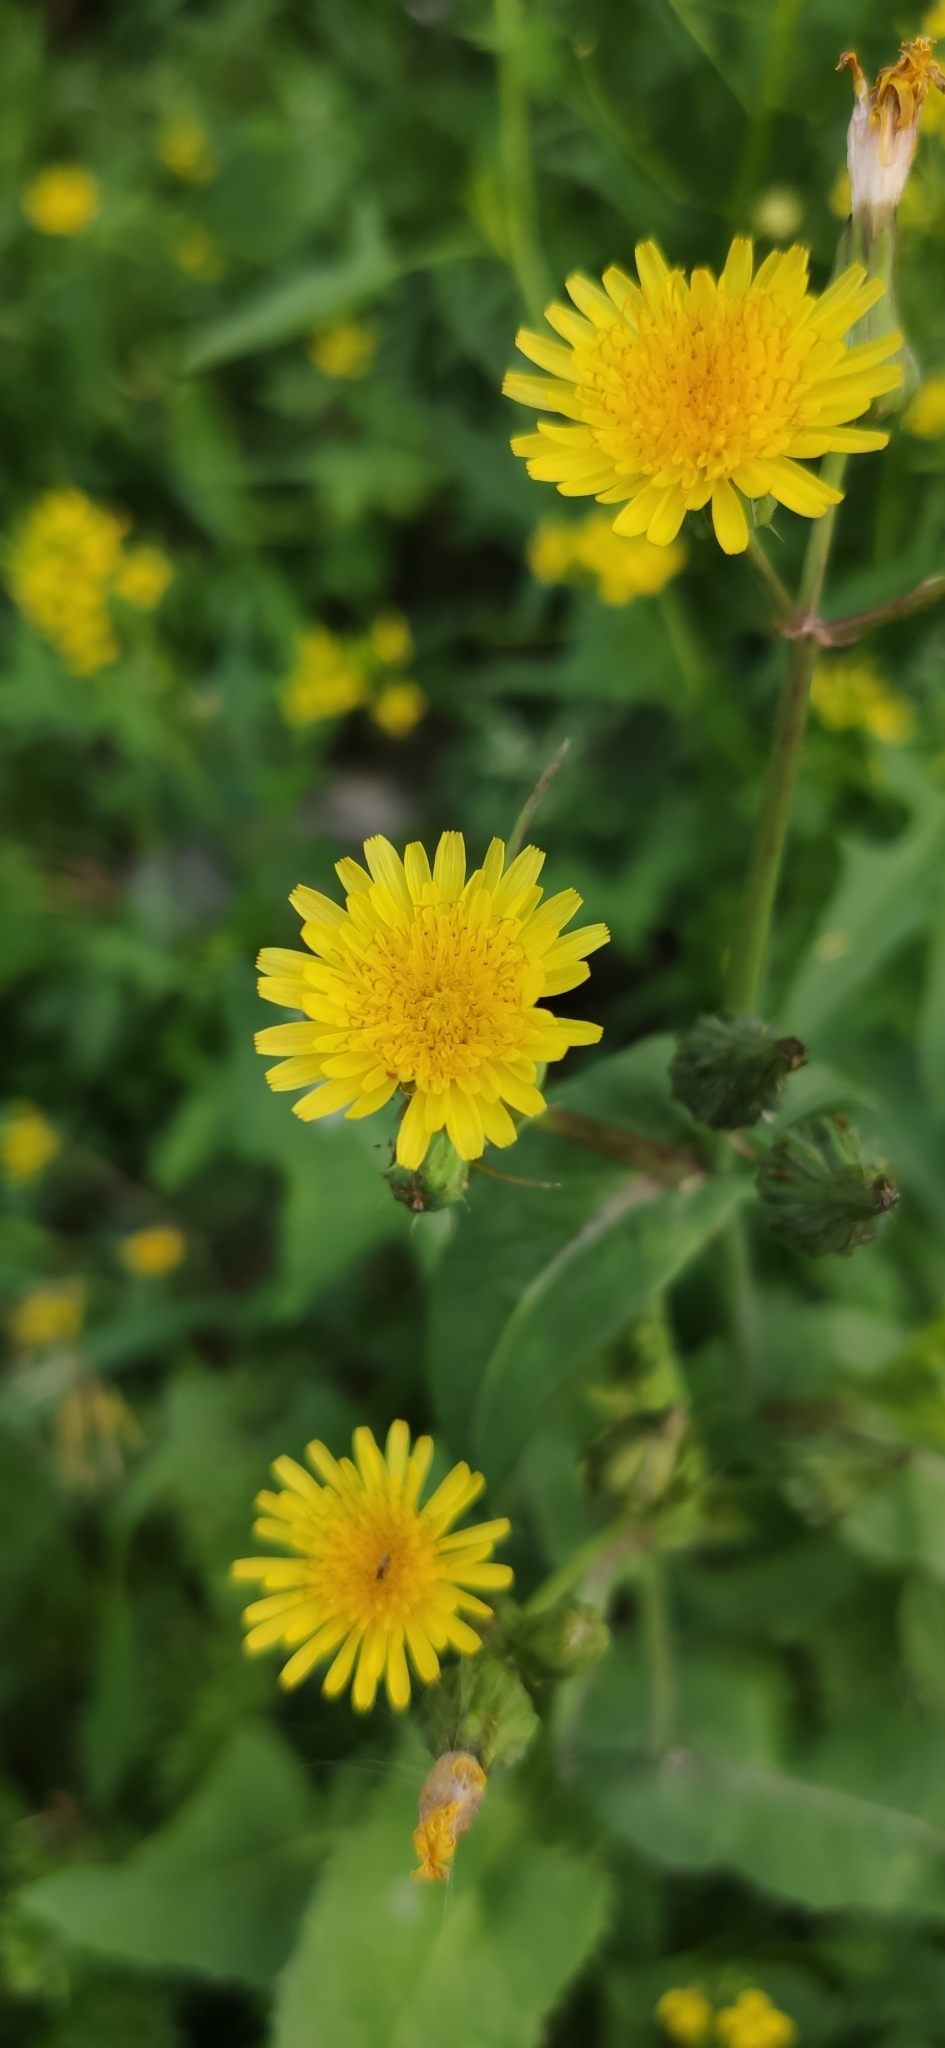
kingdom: Plantae
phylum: Tracheophyta
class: Magnoliopsida
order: Asterales
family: Asteraceae
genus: Sonchus
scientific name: Sonchus oleraceus
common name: Common sowthistle
